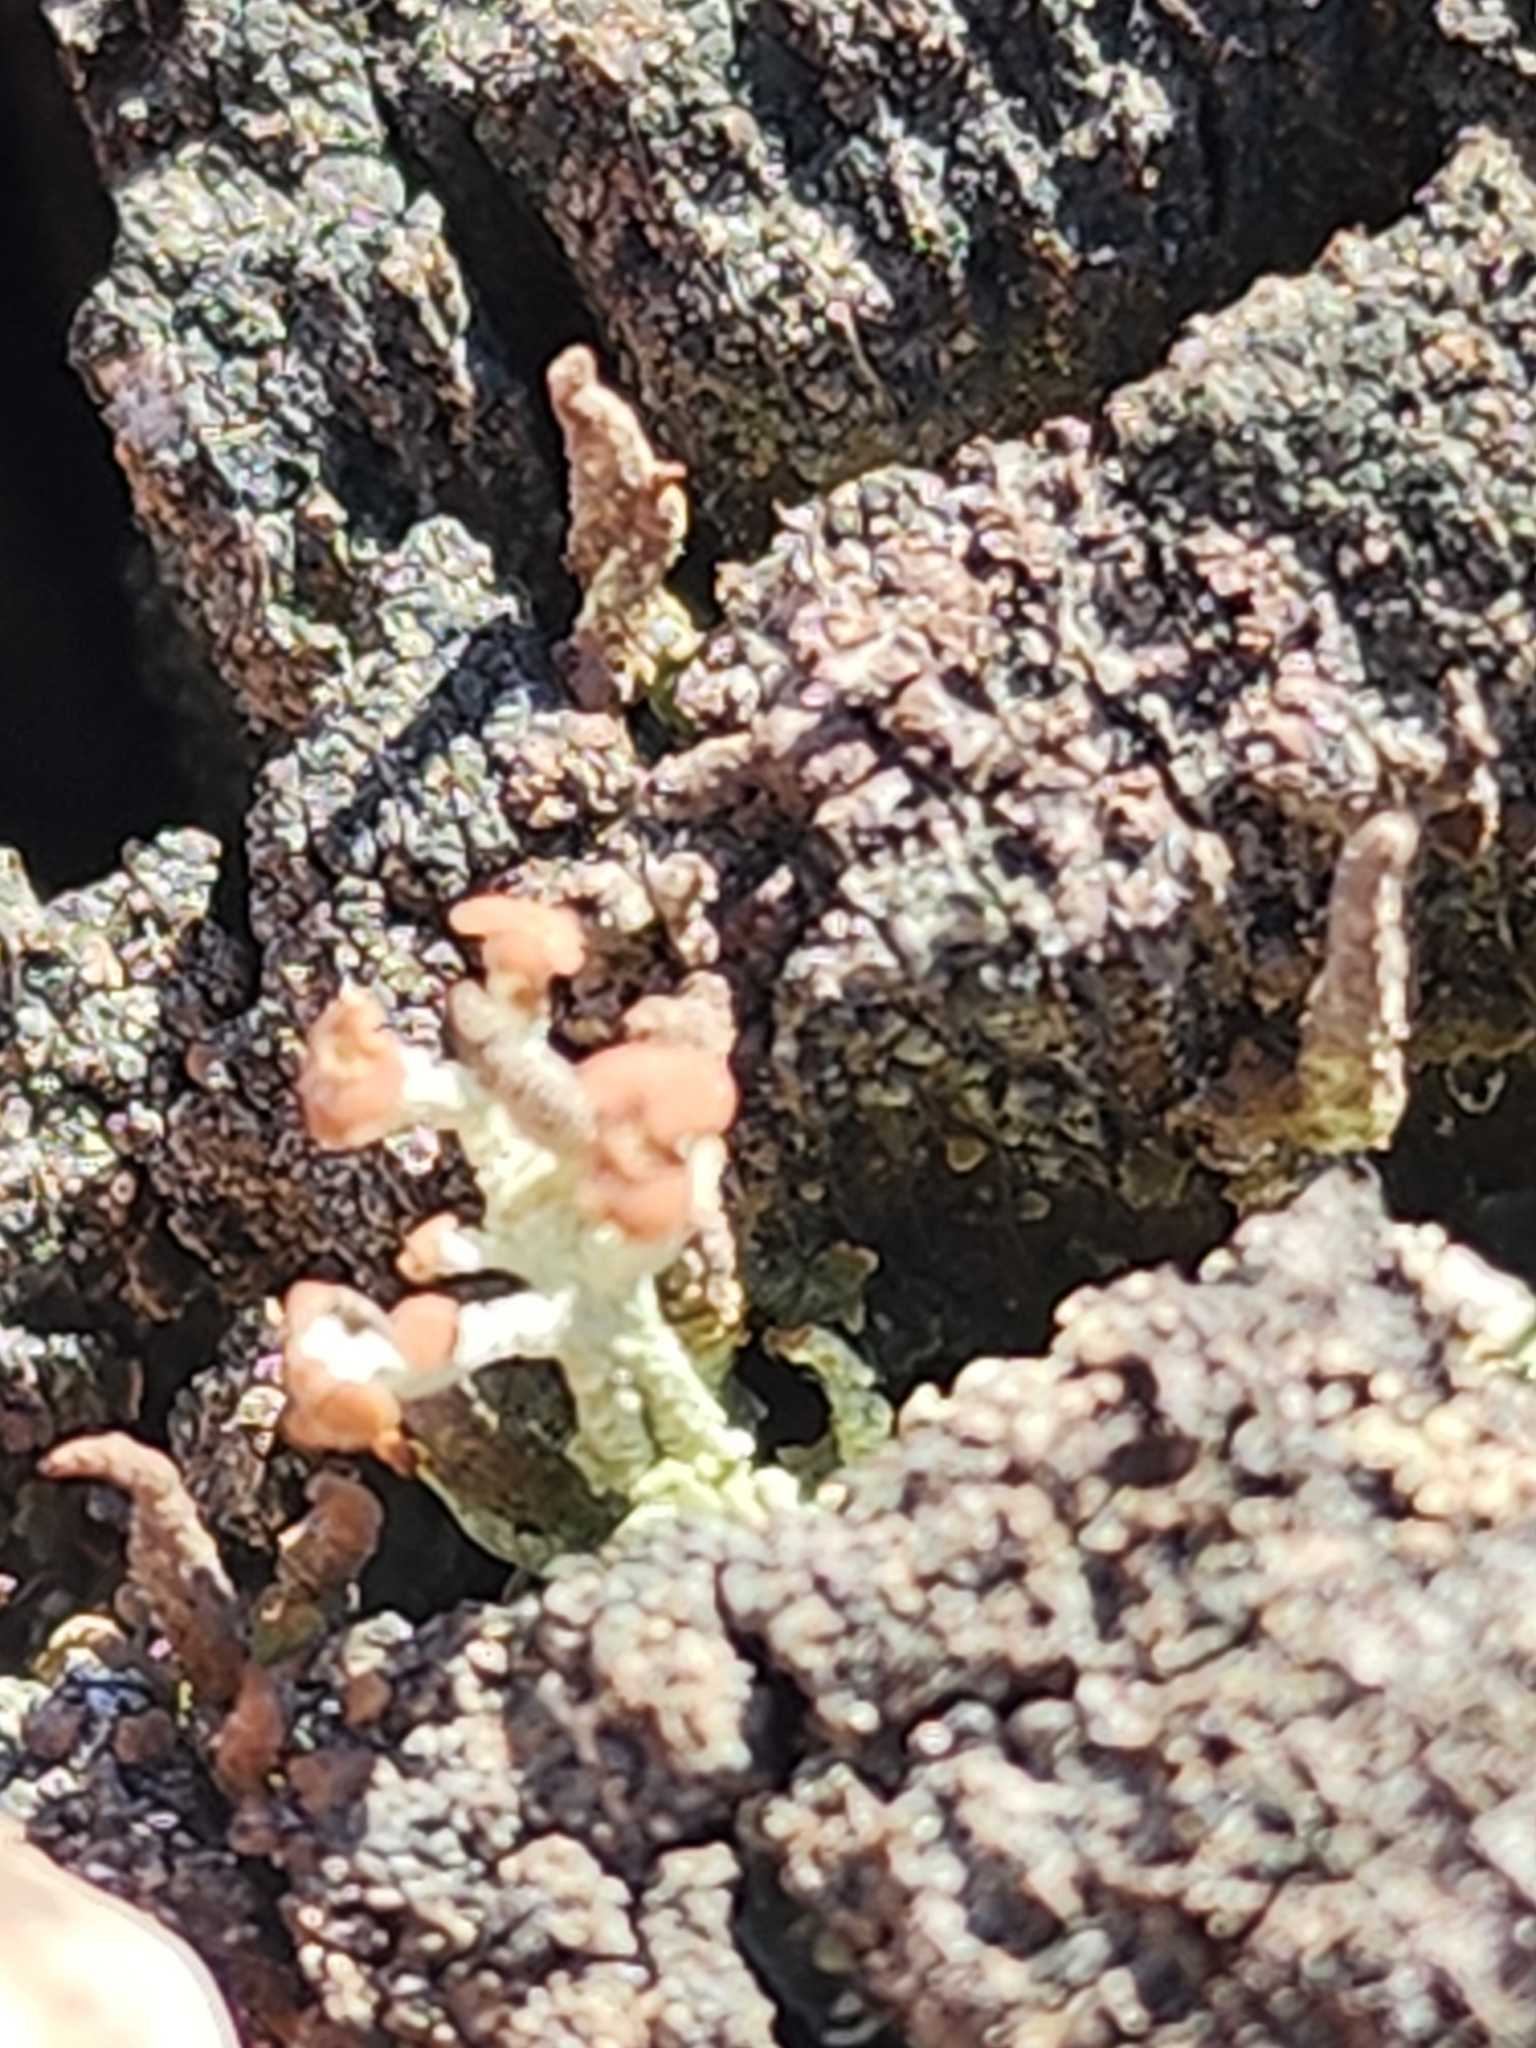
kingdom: Fungi
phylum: Ascomycota
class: Lecanoromycetes
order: Lecanorales
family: Cladoniaceae
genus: Cladonia
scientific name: Cladonia botrytes
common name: Stump lichen
